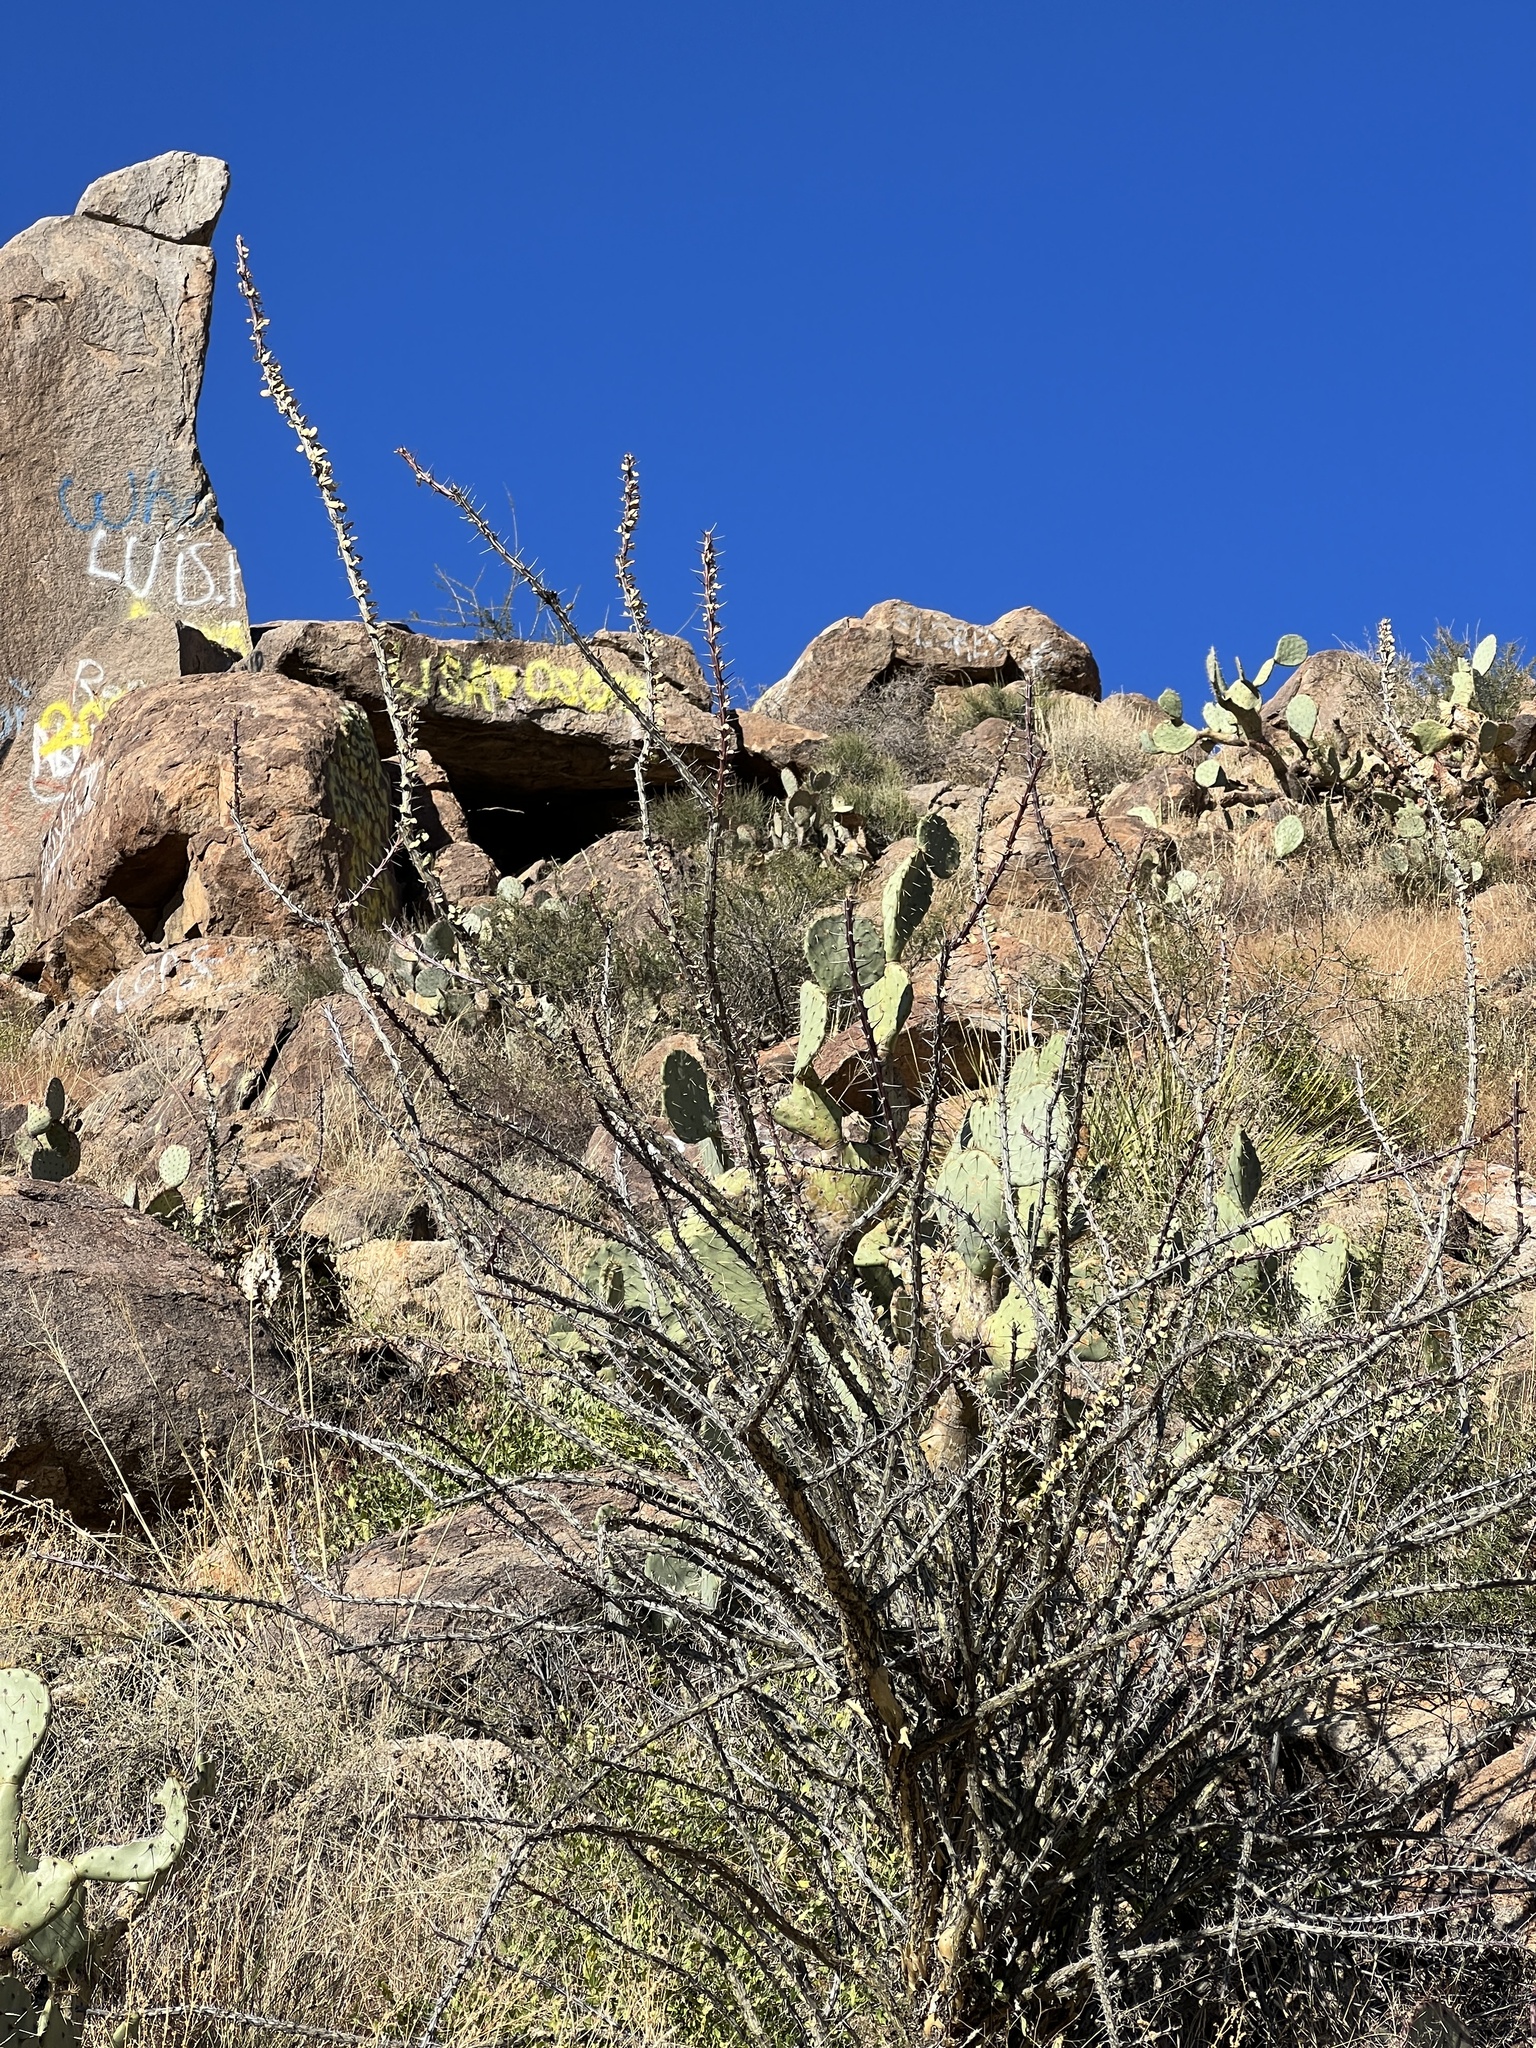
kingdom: Plantae
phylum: Tracheophyta
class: Magnoliopsida
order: Ericales
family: Fouquieriaceae
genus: Fouquieria
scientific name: Fouquieria splendens
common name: Vine-cactus
